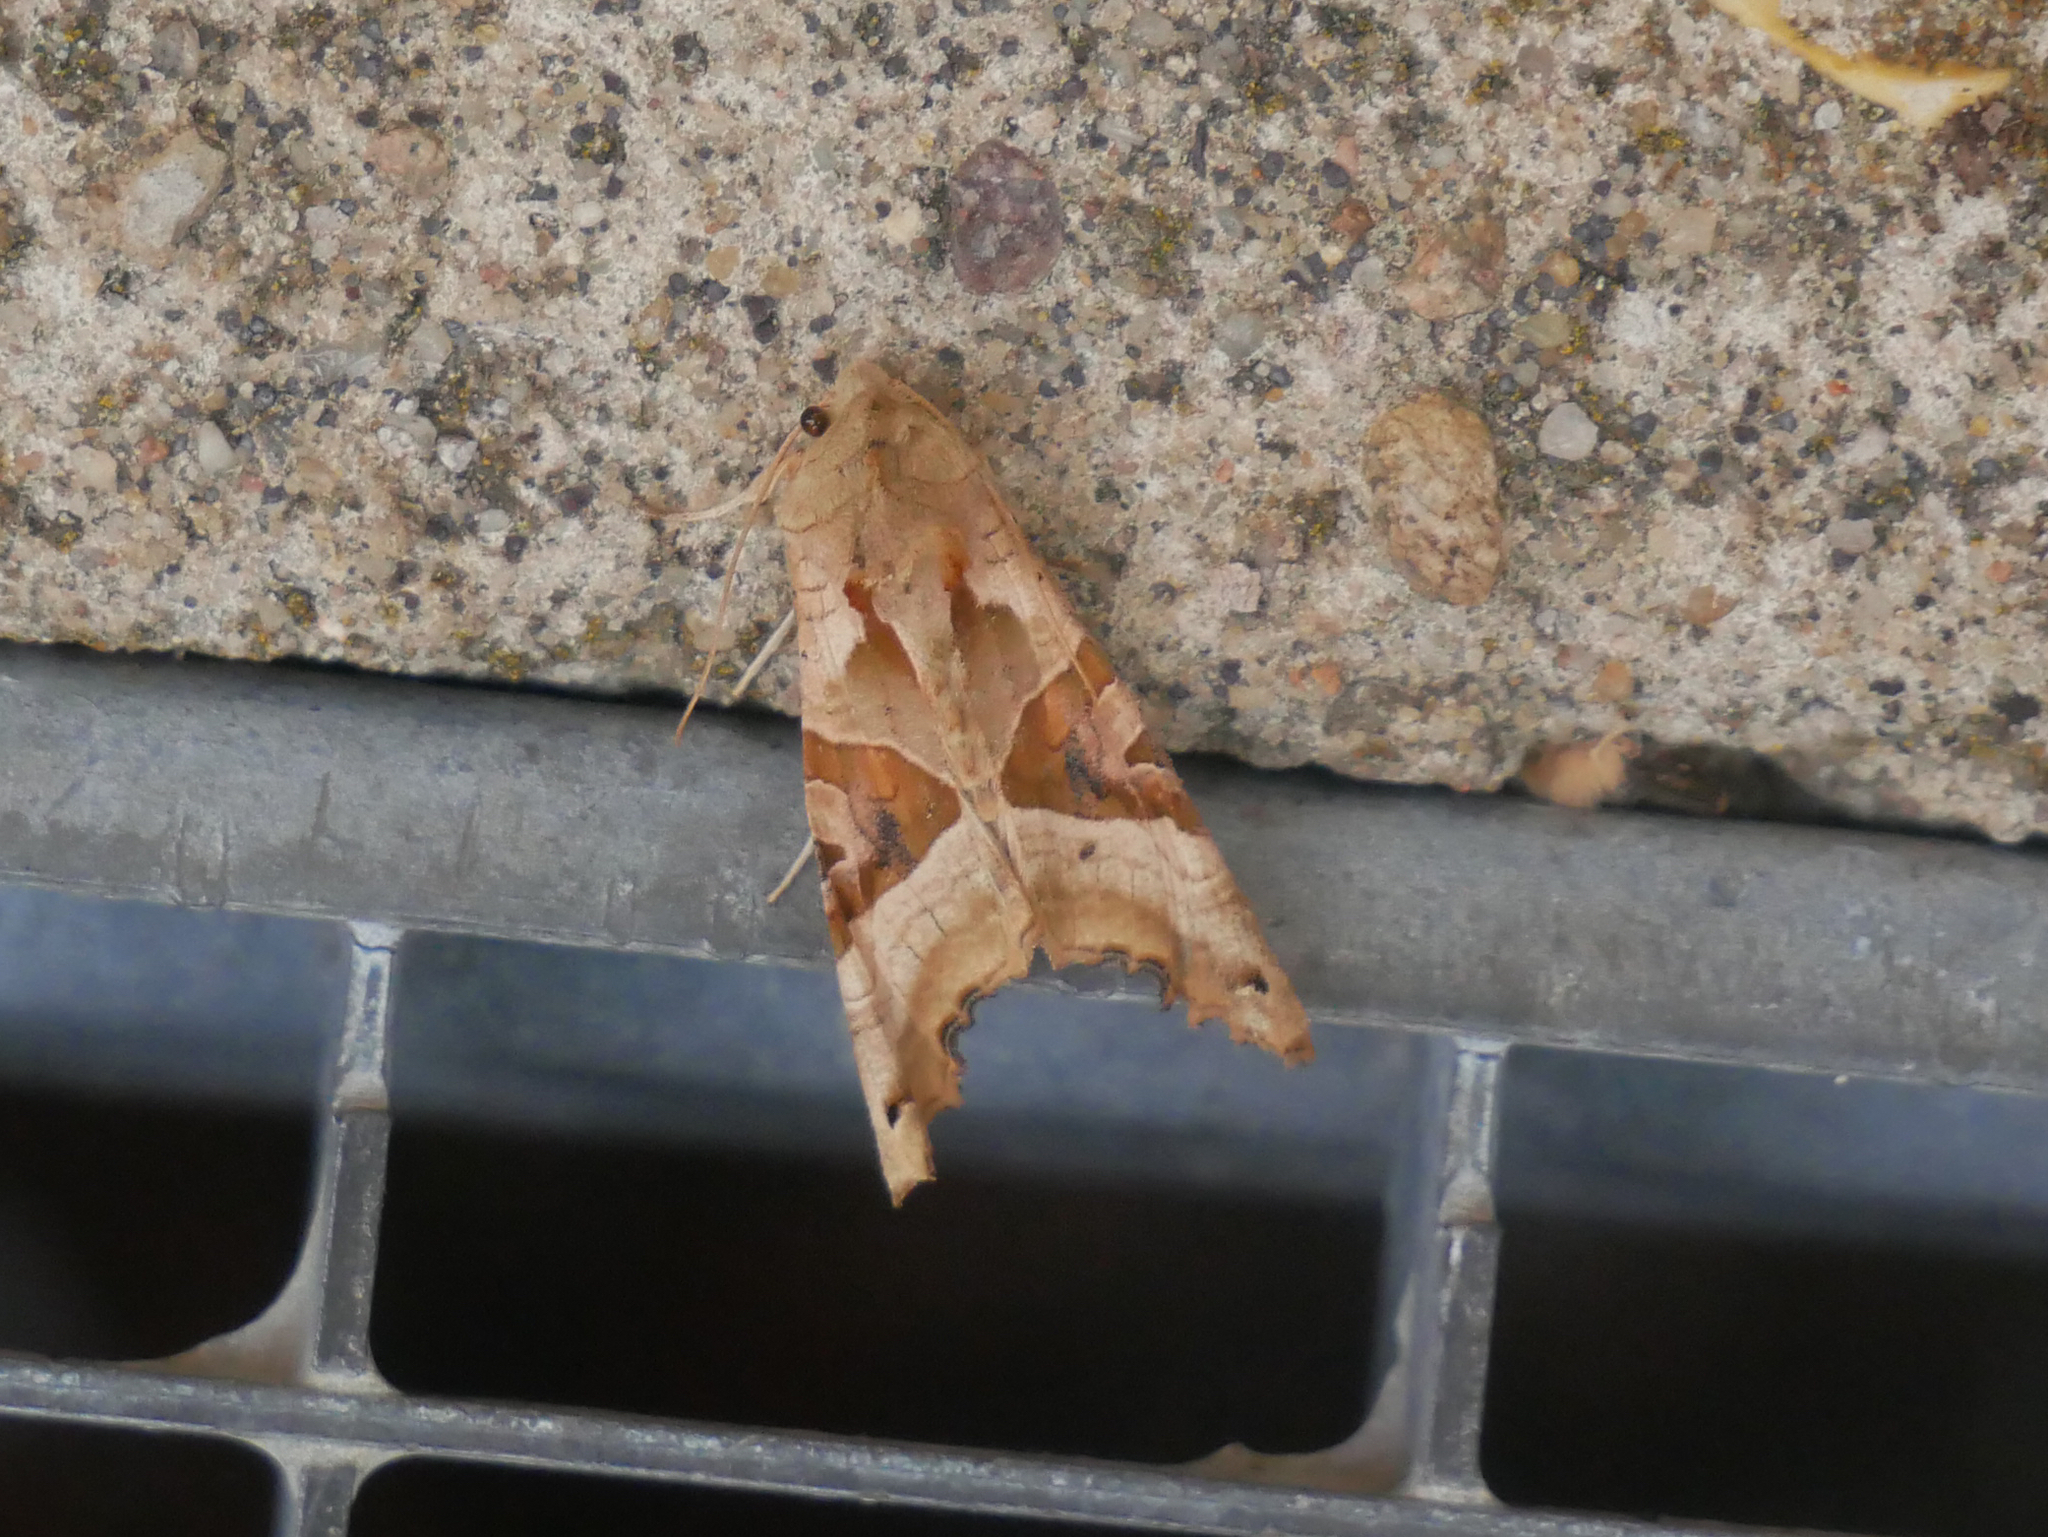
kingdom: Animalia
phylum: Arthropoda
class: Insecta
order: Lepidoptera
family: Noctuidae
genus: Phlogophora
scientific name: Phlogophora meticulosa
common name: Angle shades
